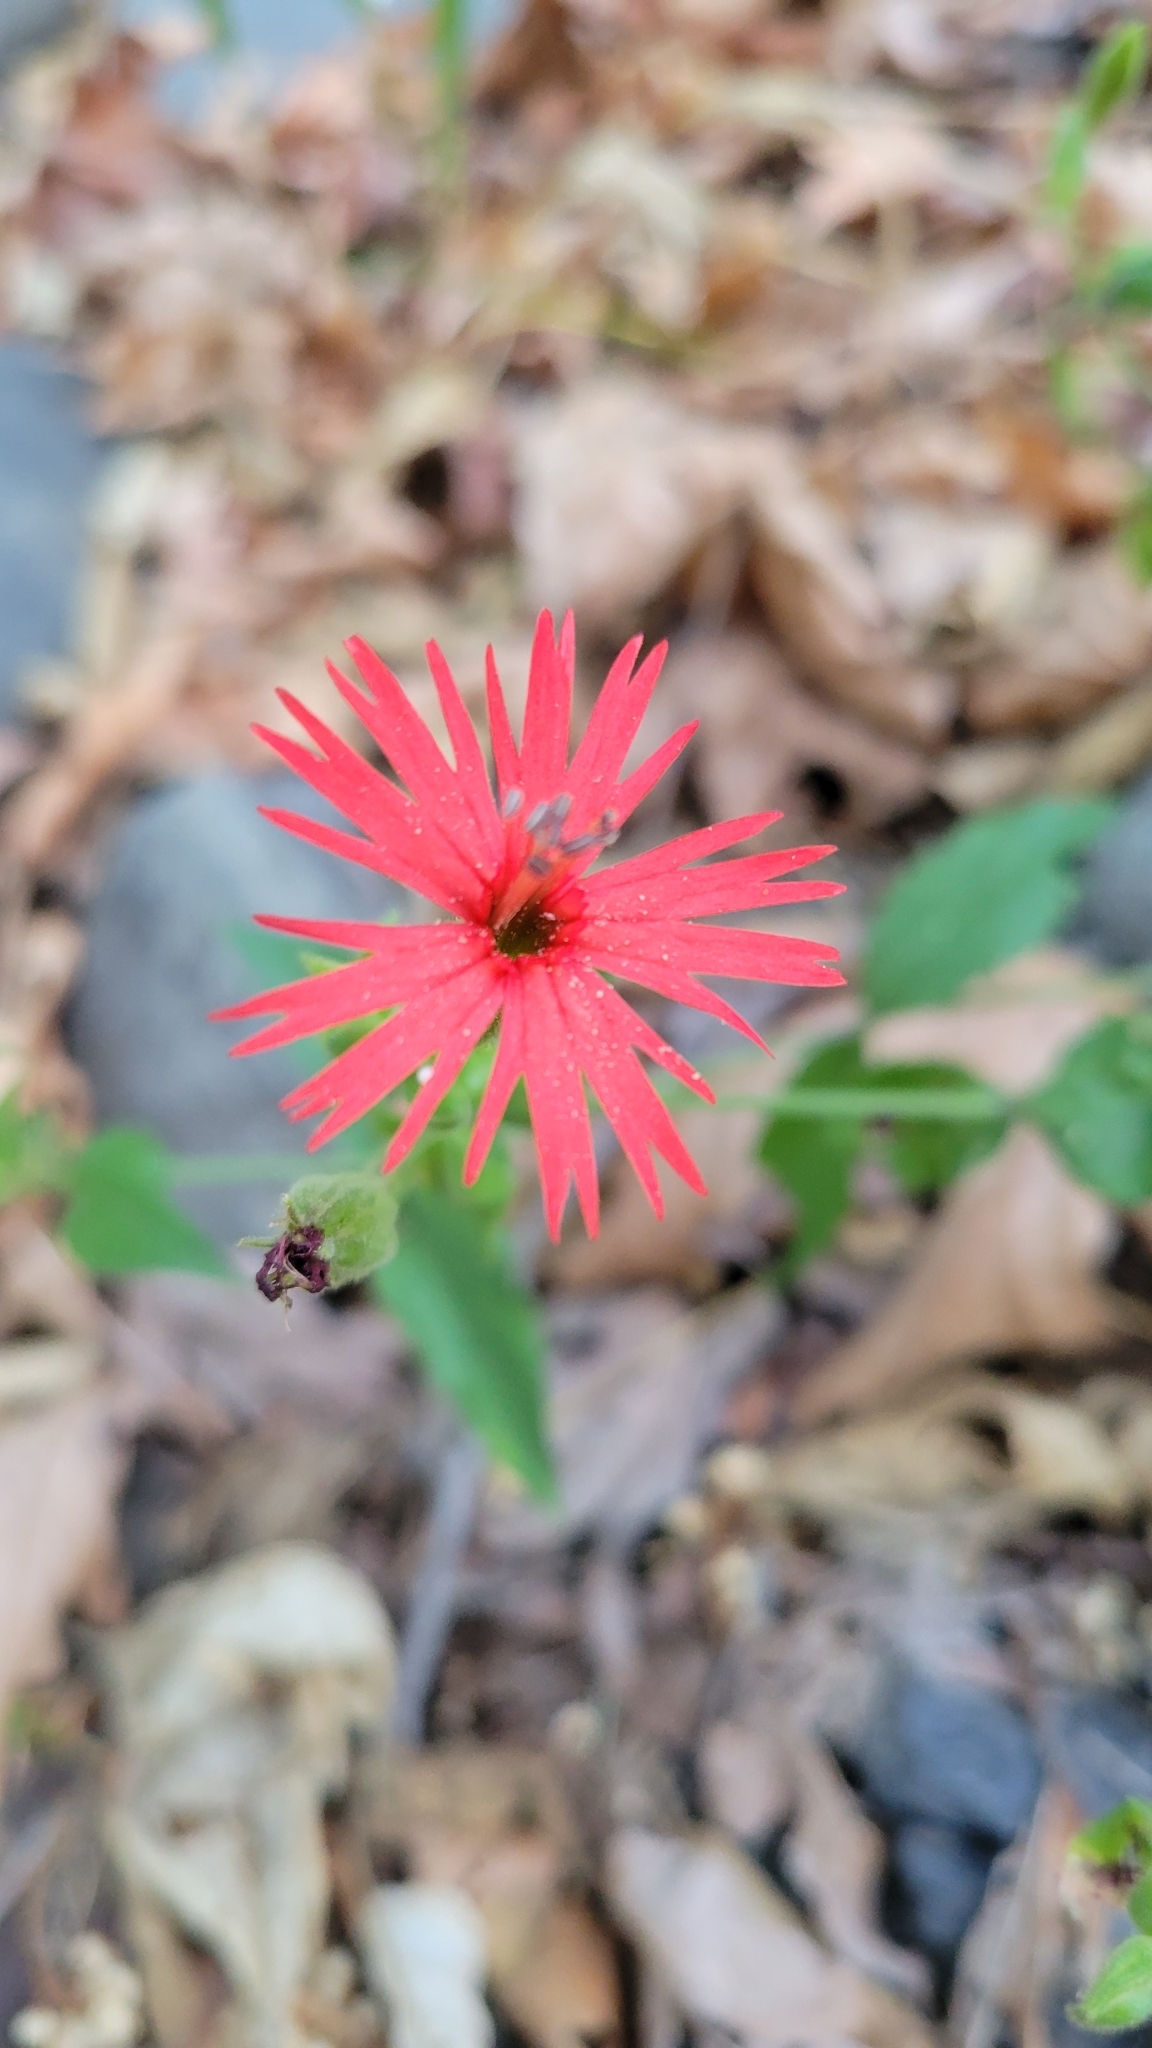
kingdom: Plantae
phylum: Tracheophyta
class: Magnoliopsida
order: Caryophyllales
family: Caryophyllaceae
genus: Silene
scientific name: Silene laciniata
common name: Indian-pink
